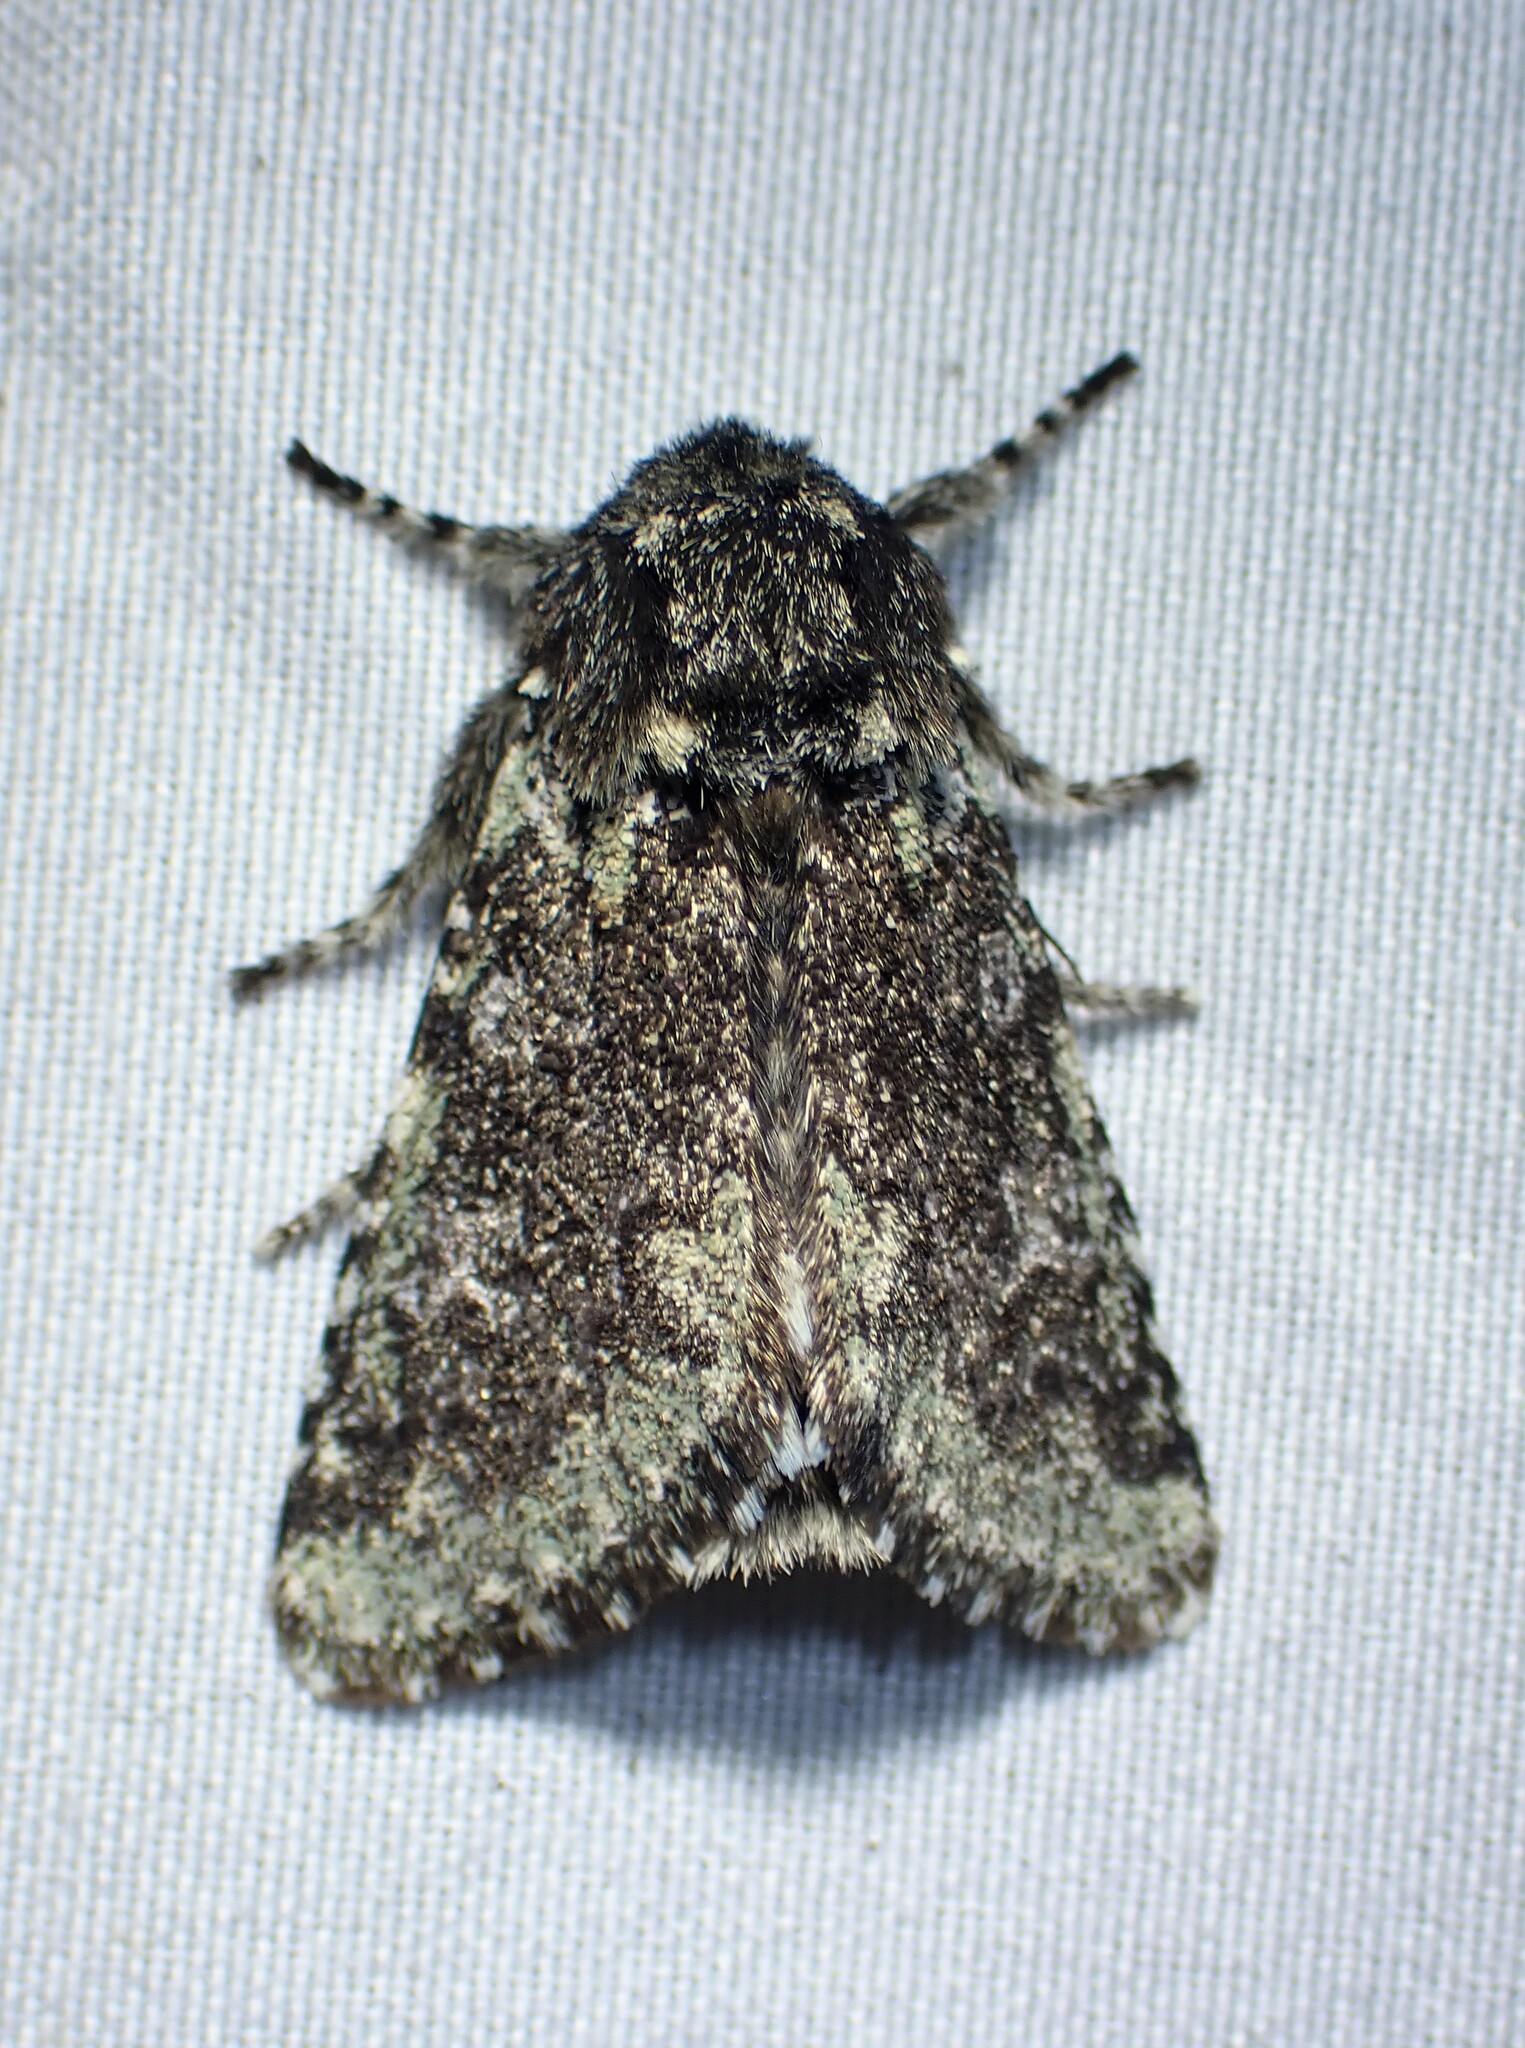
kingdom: Animalia
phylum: Arthropoda
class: Insecta
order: Lepidoptera
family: Noctuidae
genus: Feralia
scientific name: Feralia major
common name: Major sallow
